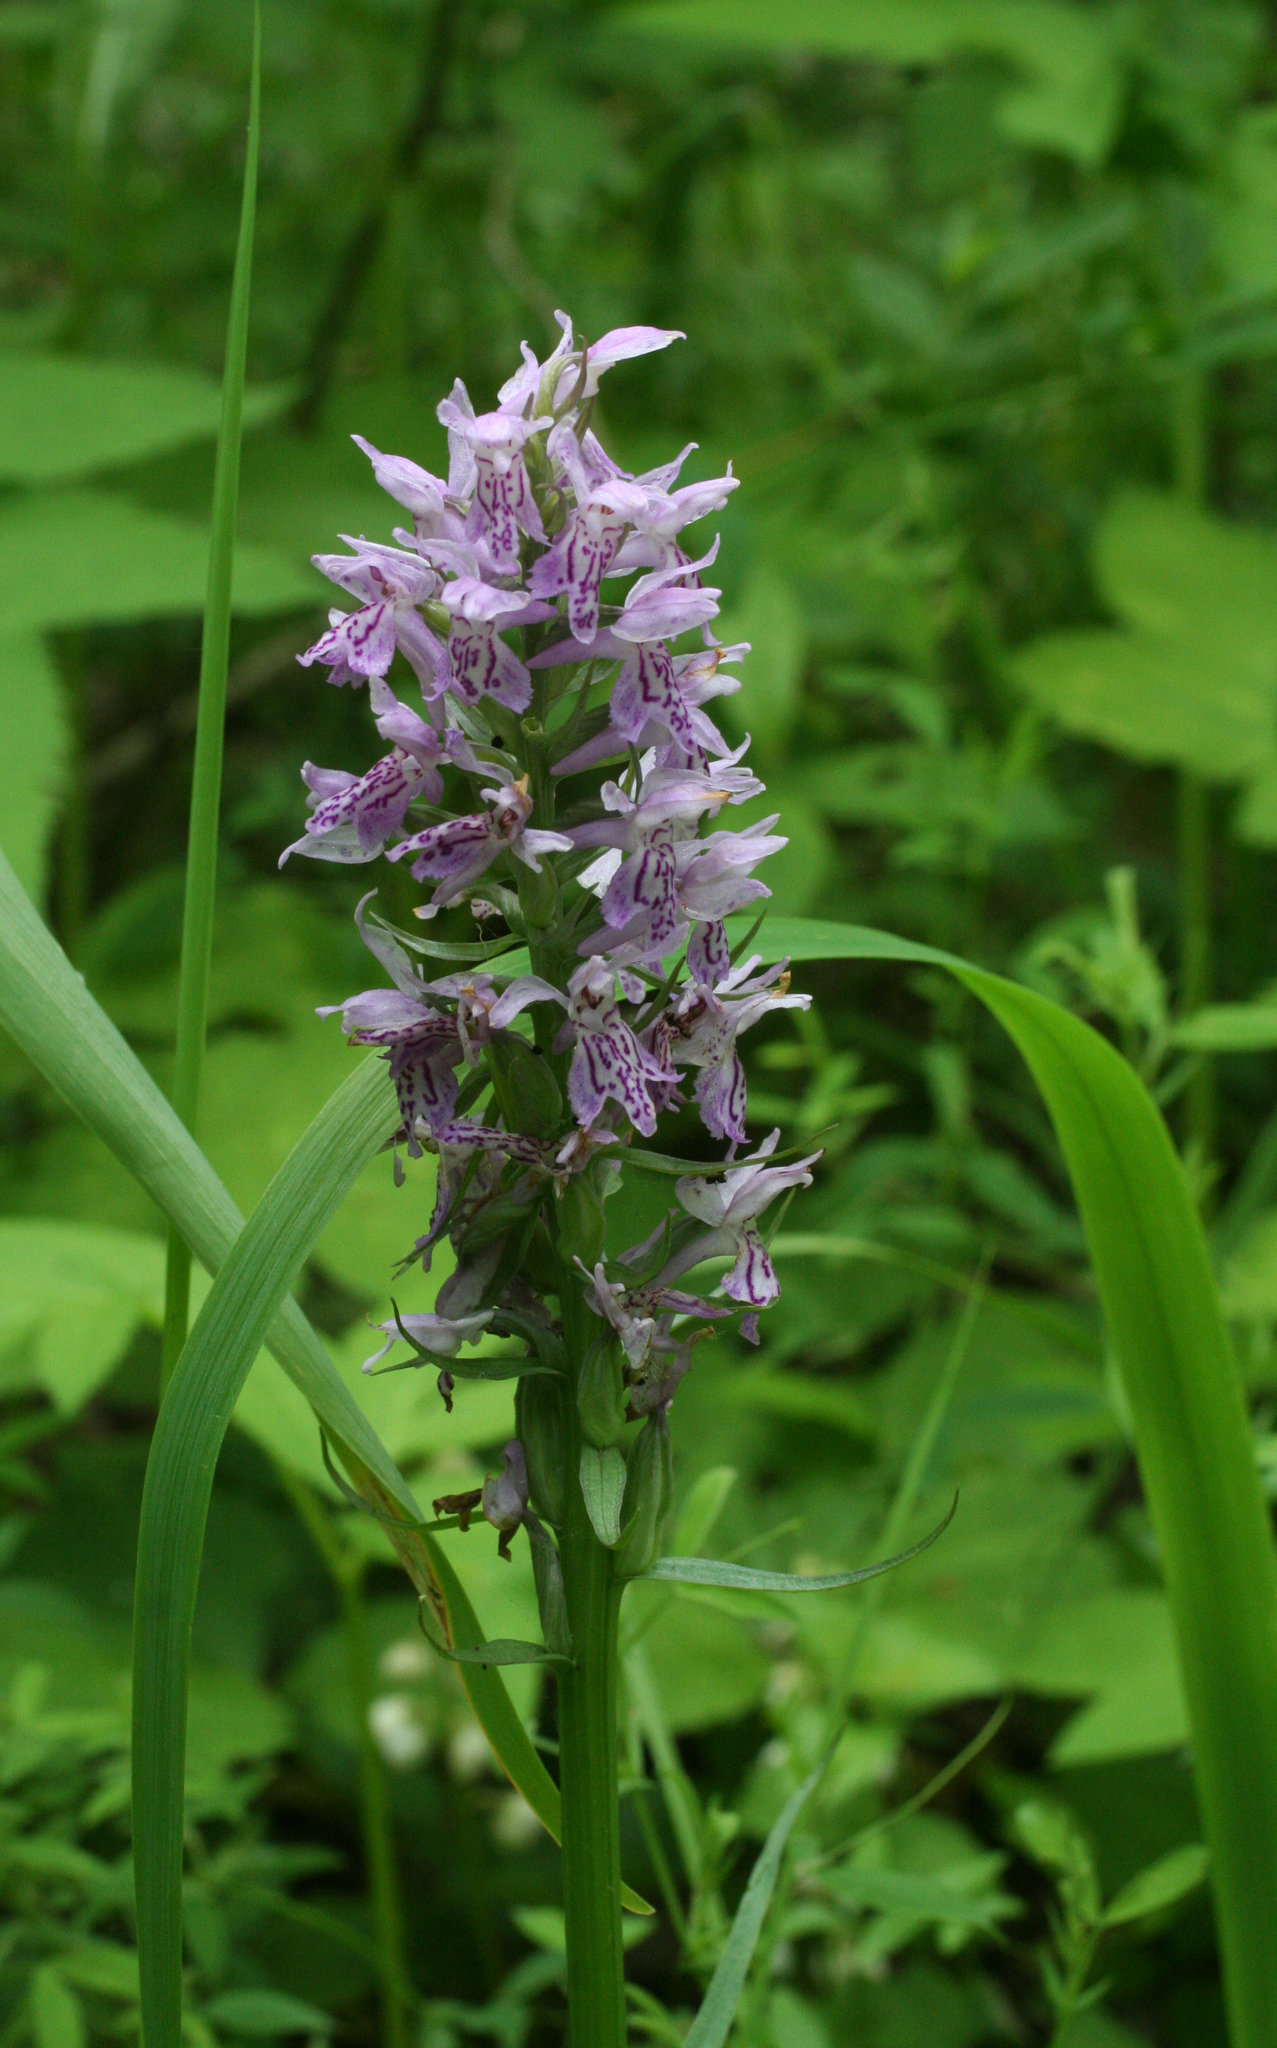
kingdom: Plantae
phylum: Tracheophyta
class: Liliopsida
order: Asparagales
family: Orchidaceae
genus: Dactylorhiza
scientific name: Dactylorhiza sibirica
